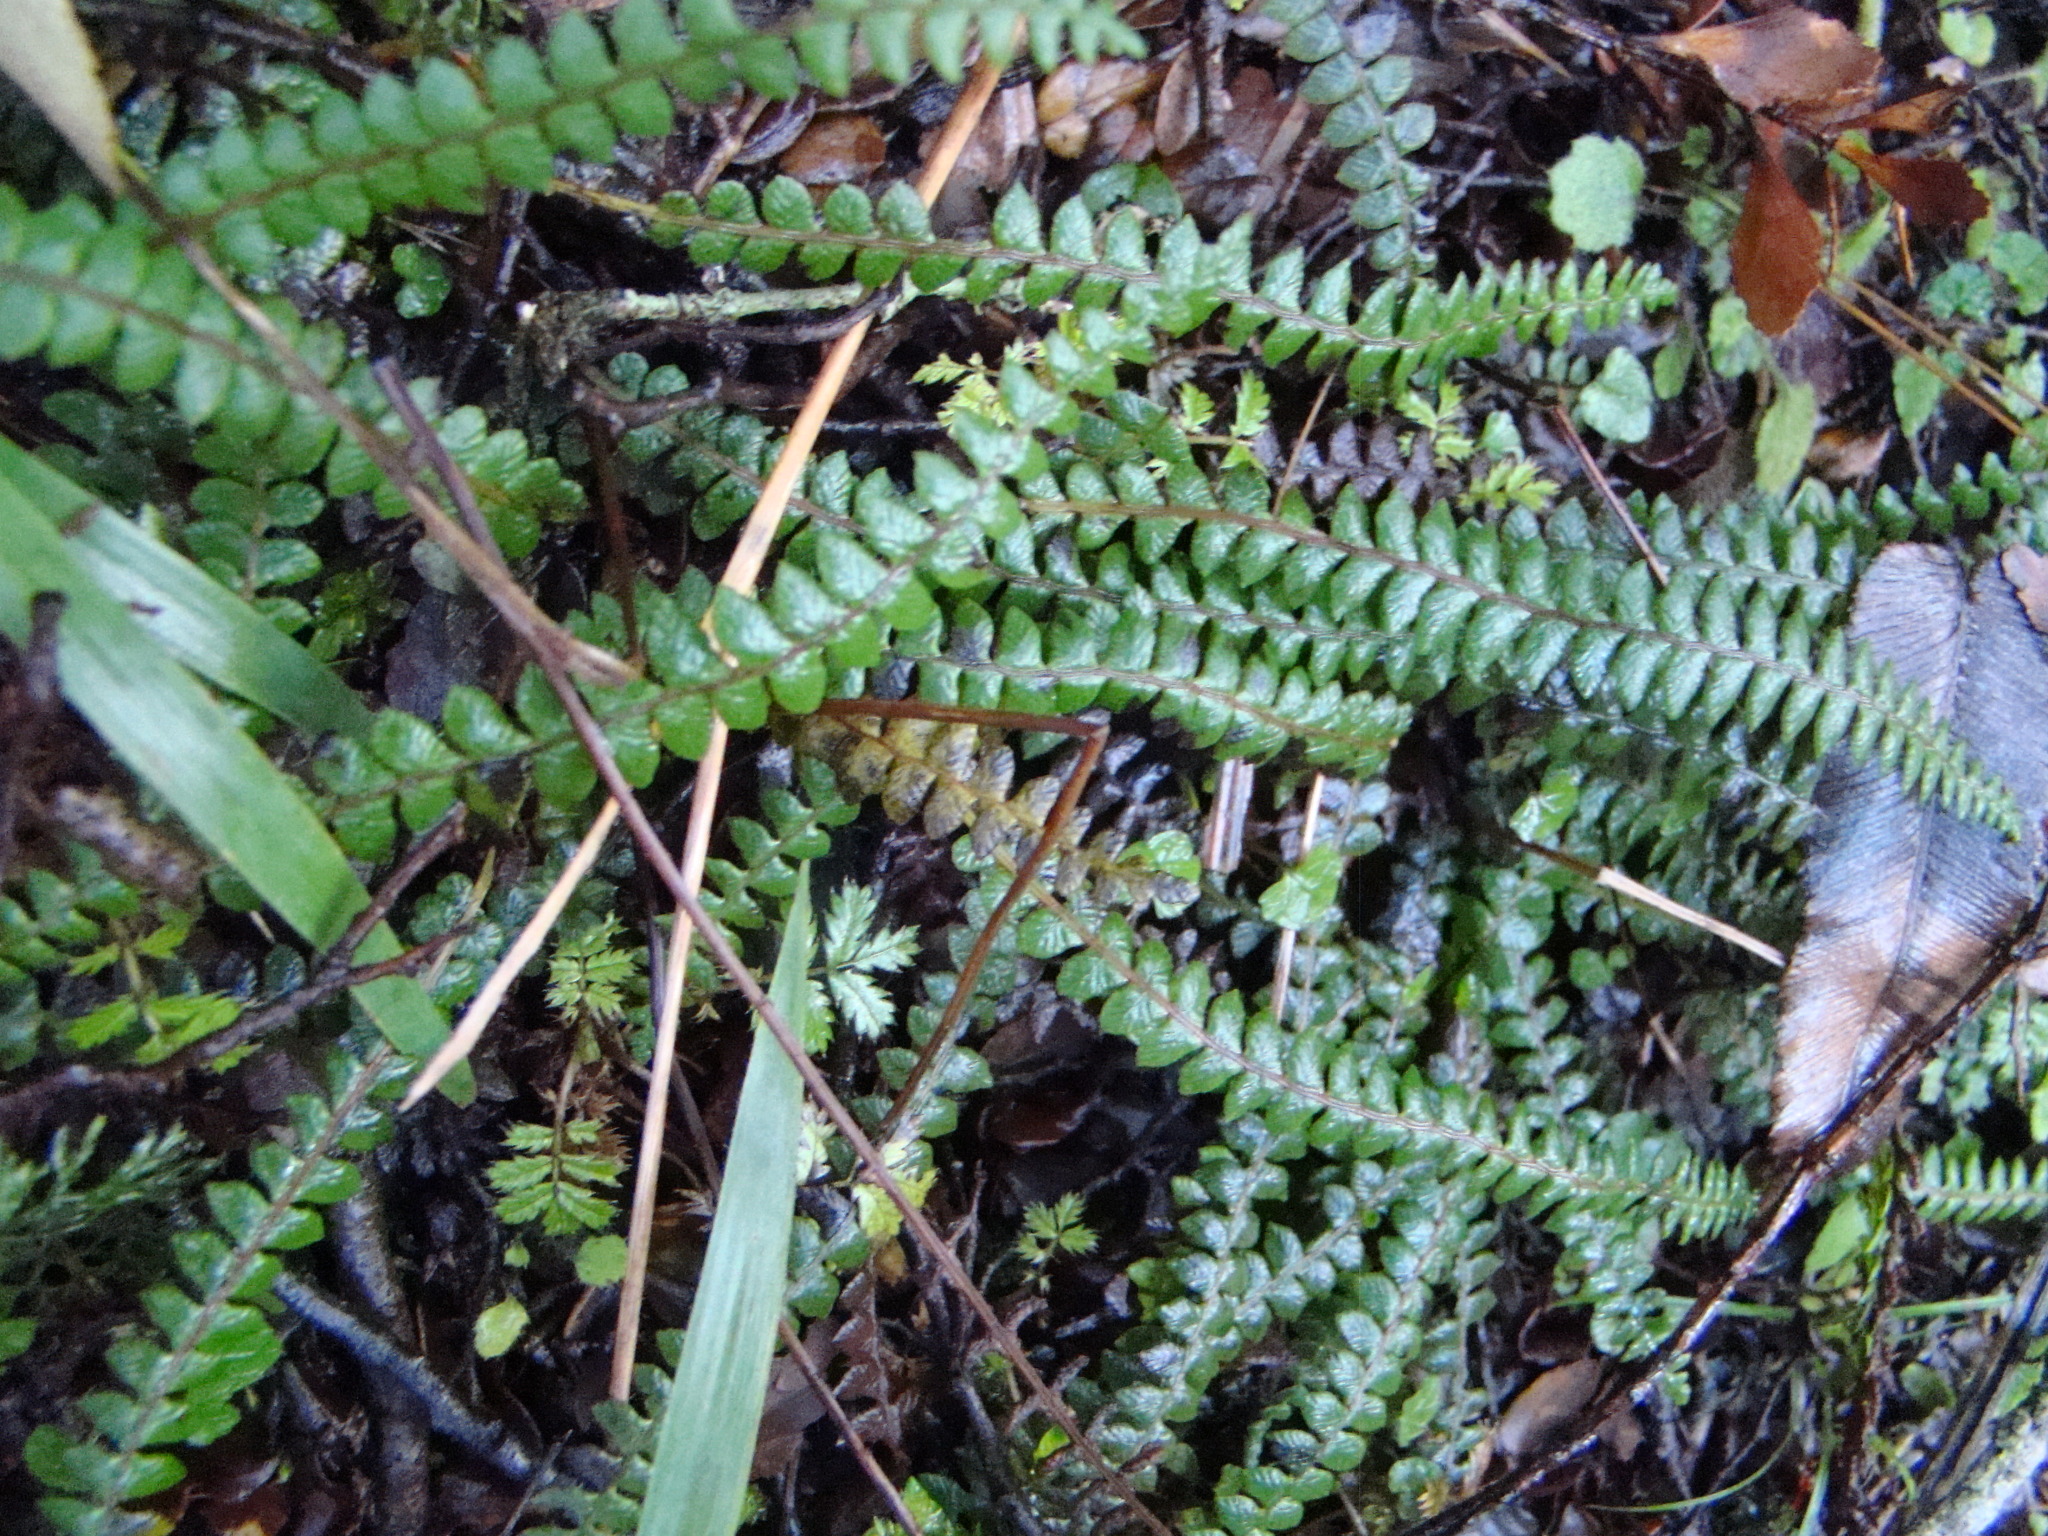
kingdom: Plantae
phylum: Tracheophyta
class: Polypodiopsida
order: Polypodiales
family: Blechnaceae
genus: Austroblechnum
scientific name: Austroblechnum penna-marina
